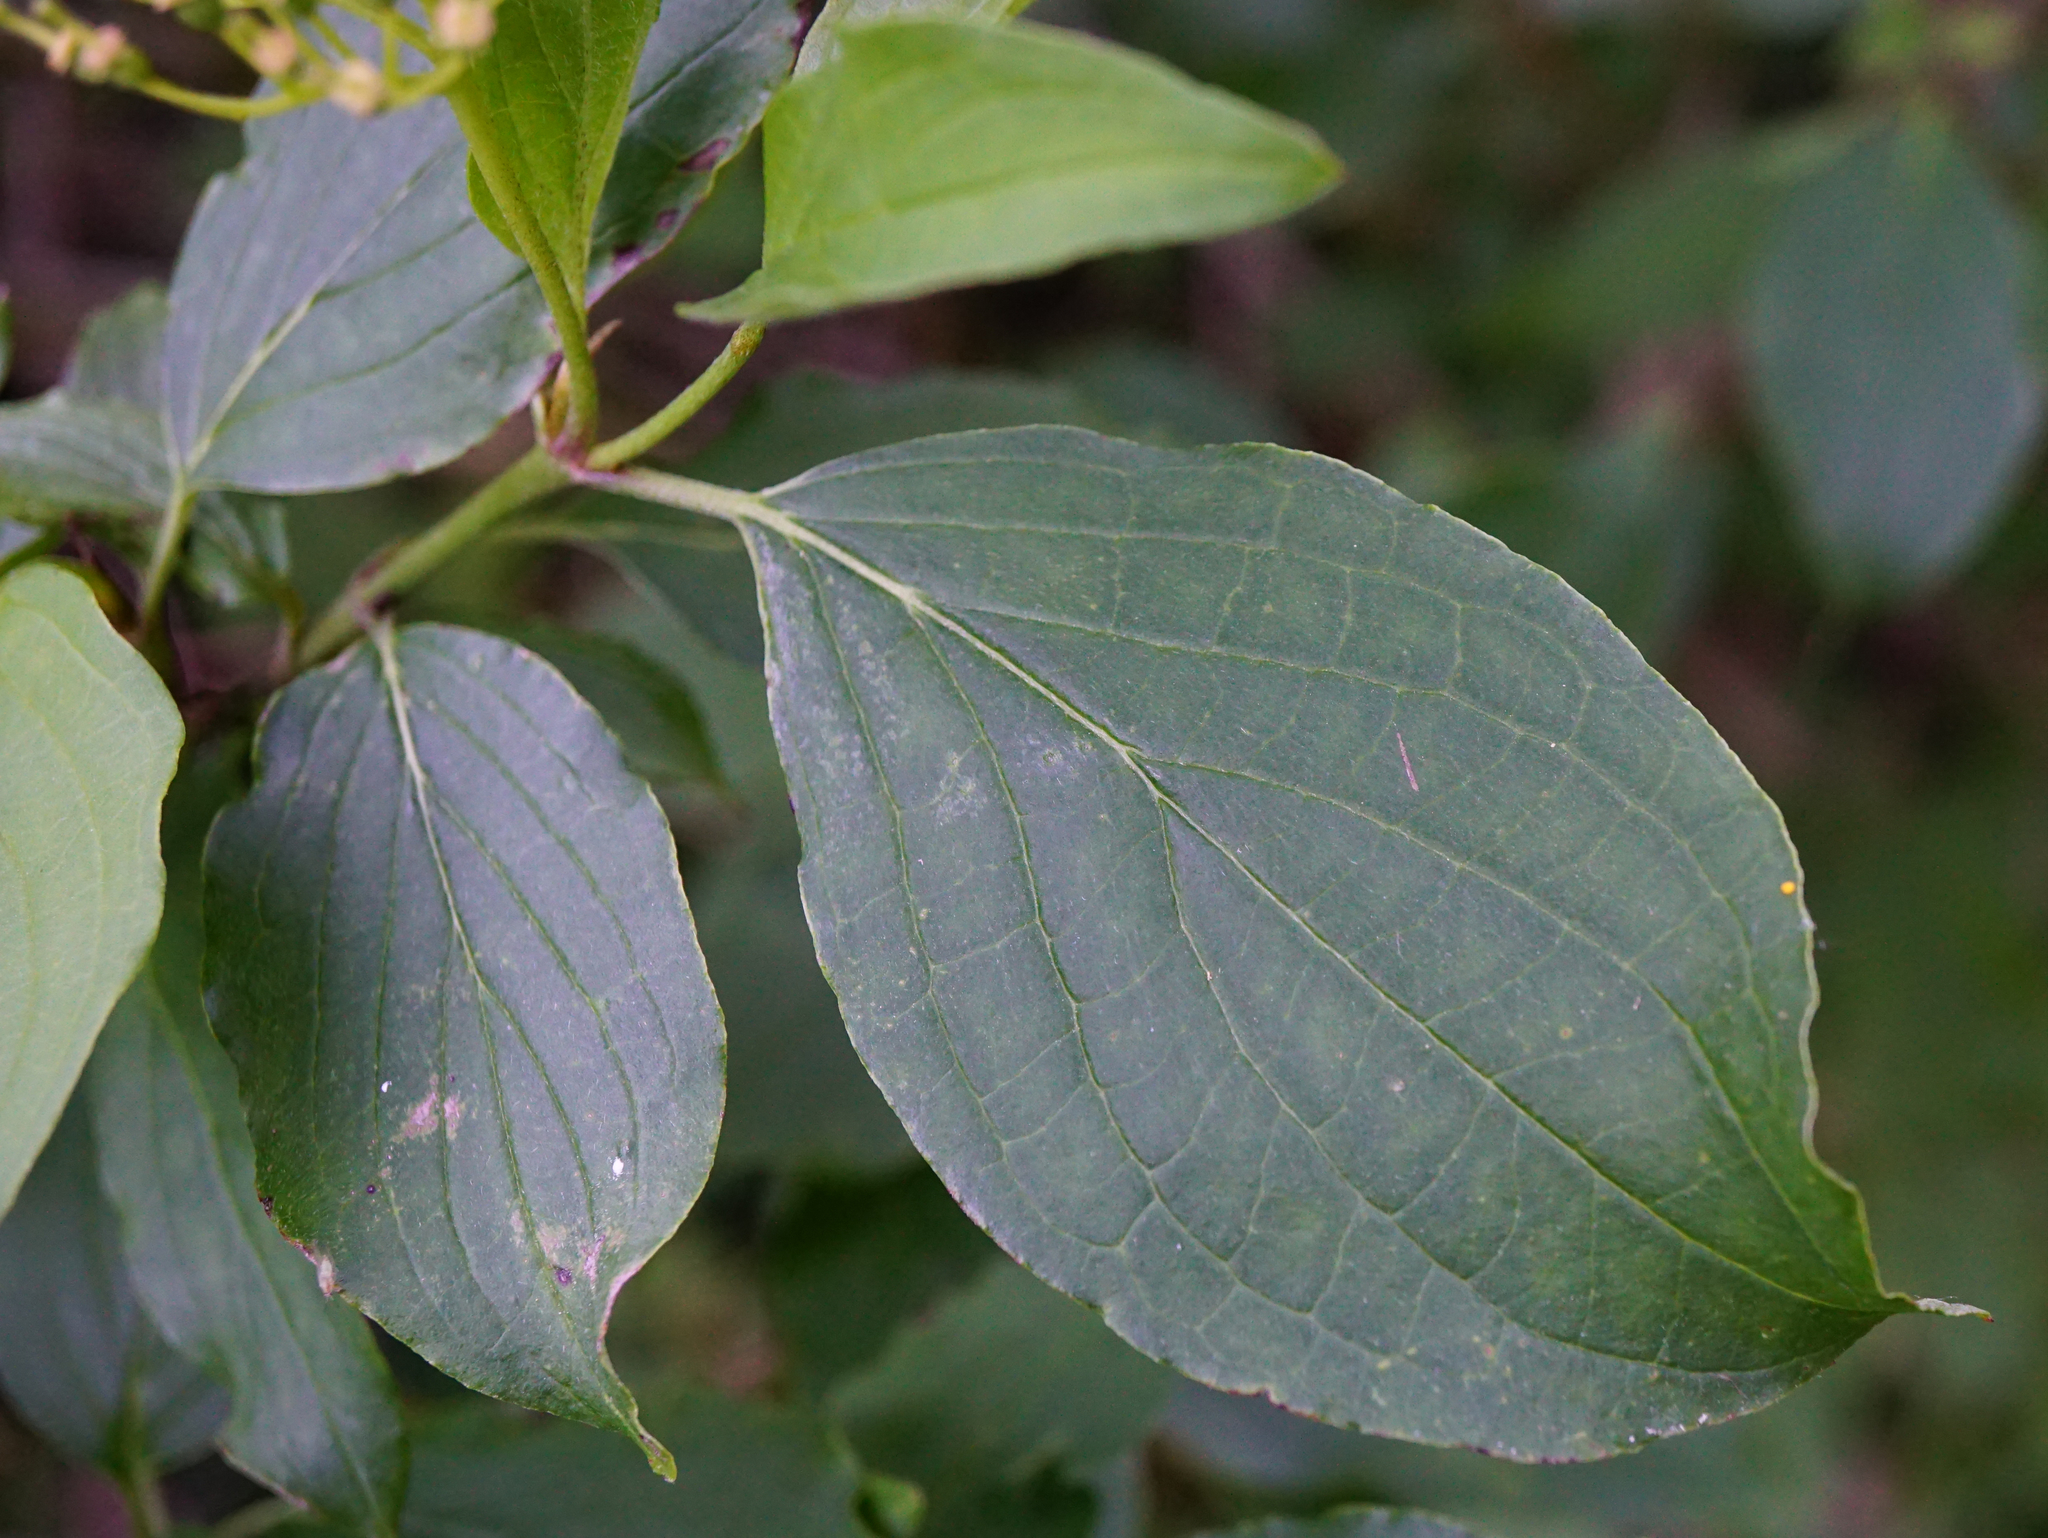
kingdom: Plantae
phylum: Tracheophyta
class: Magnoliopsida
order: Cornales
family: Cornaceae
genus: Cornus
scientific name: Cornus sanguinea
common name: Dogwood
